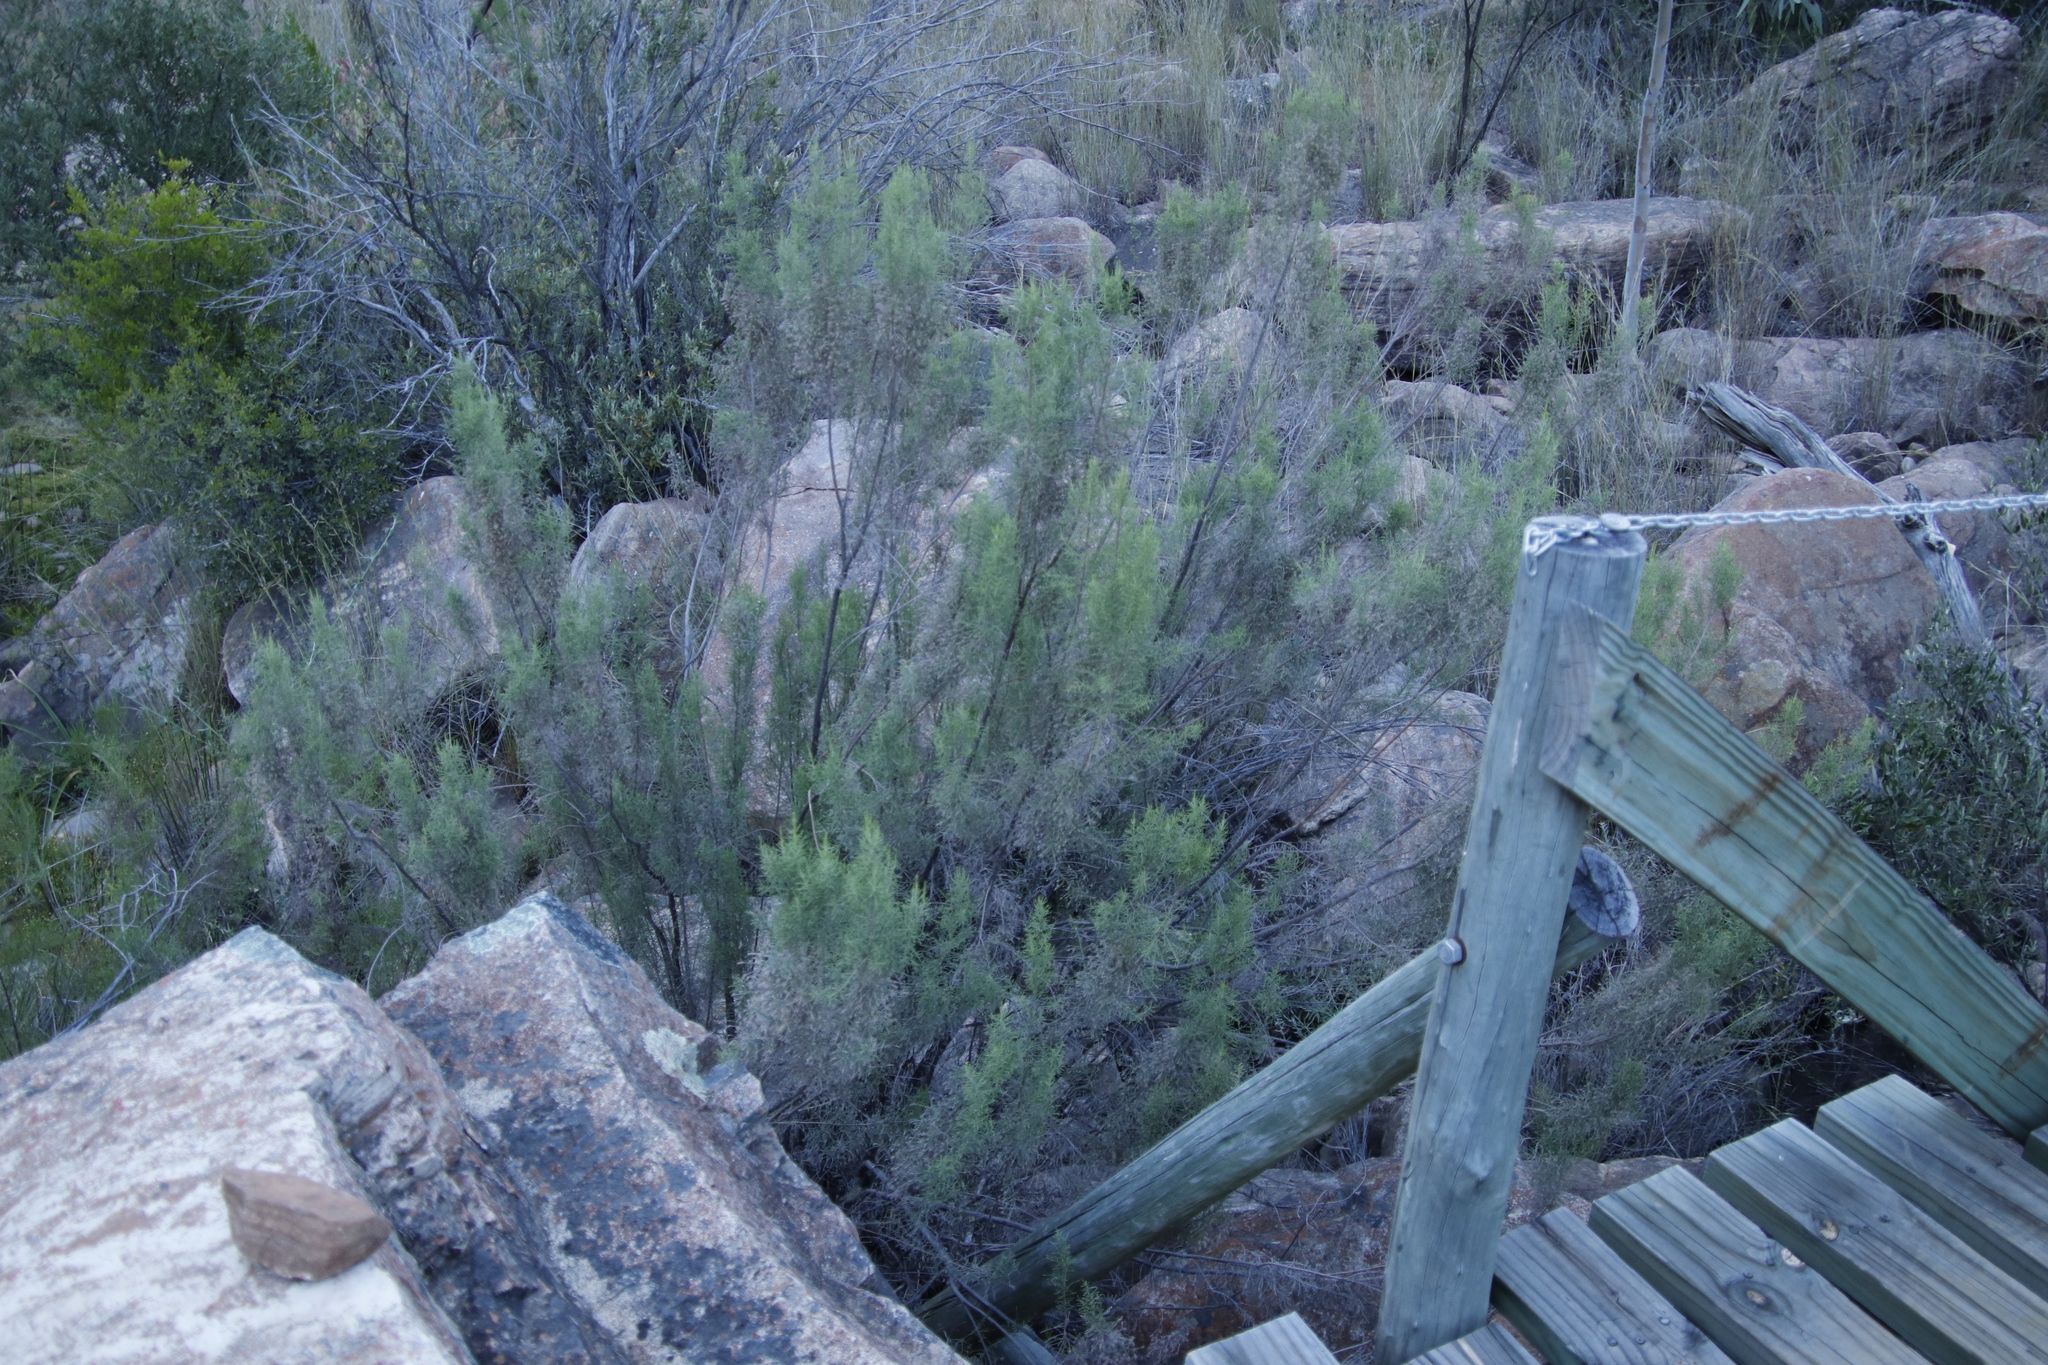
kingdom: Plantae
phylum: Tracheophyta
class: Magnoliopsida
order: Asterales
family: Asteraceae
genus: Dicerothamnus
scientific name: Dicerothamnus rhinocerotis
